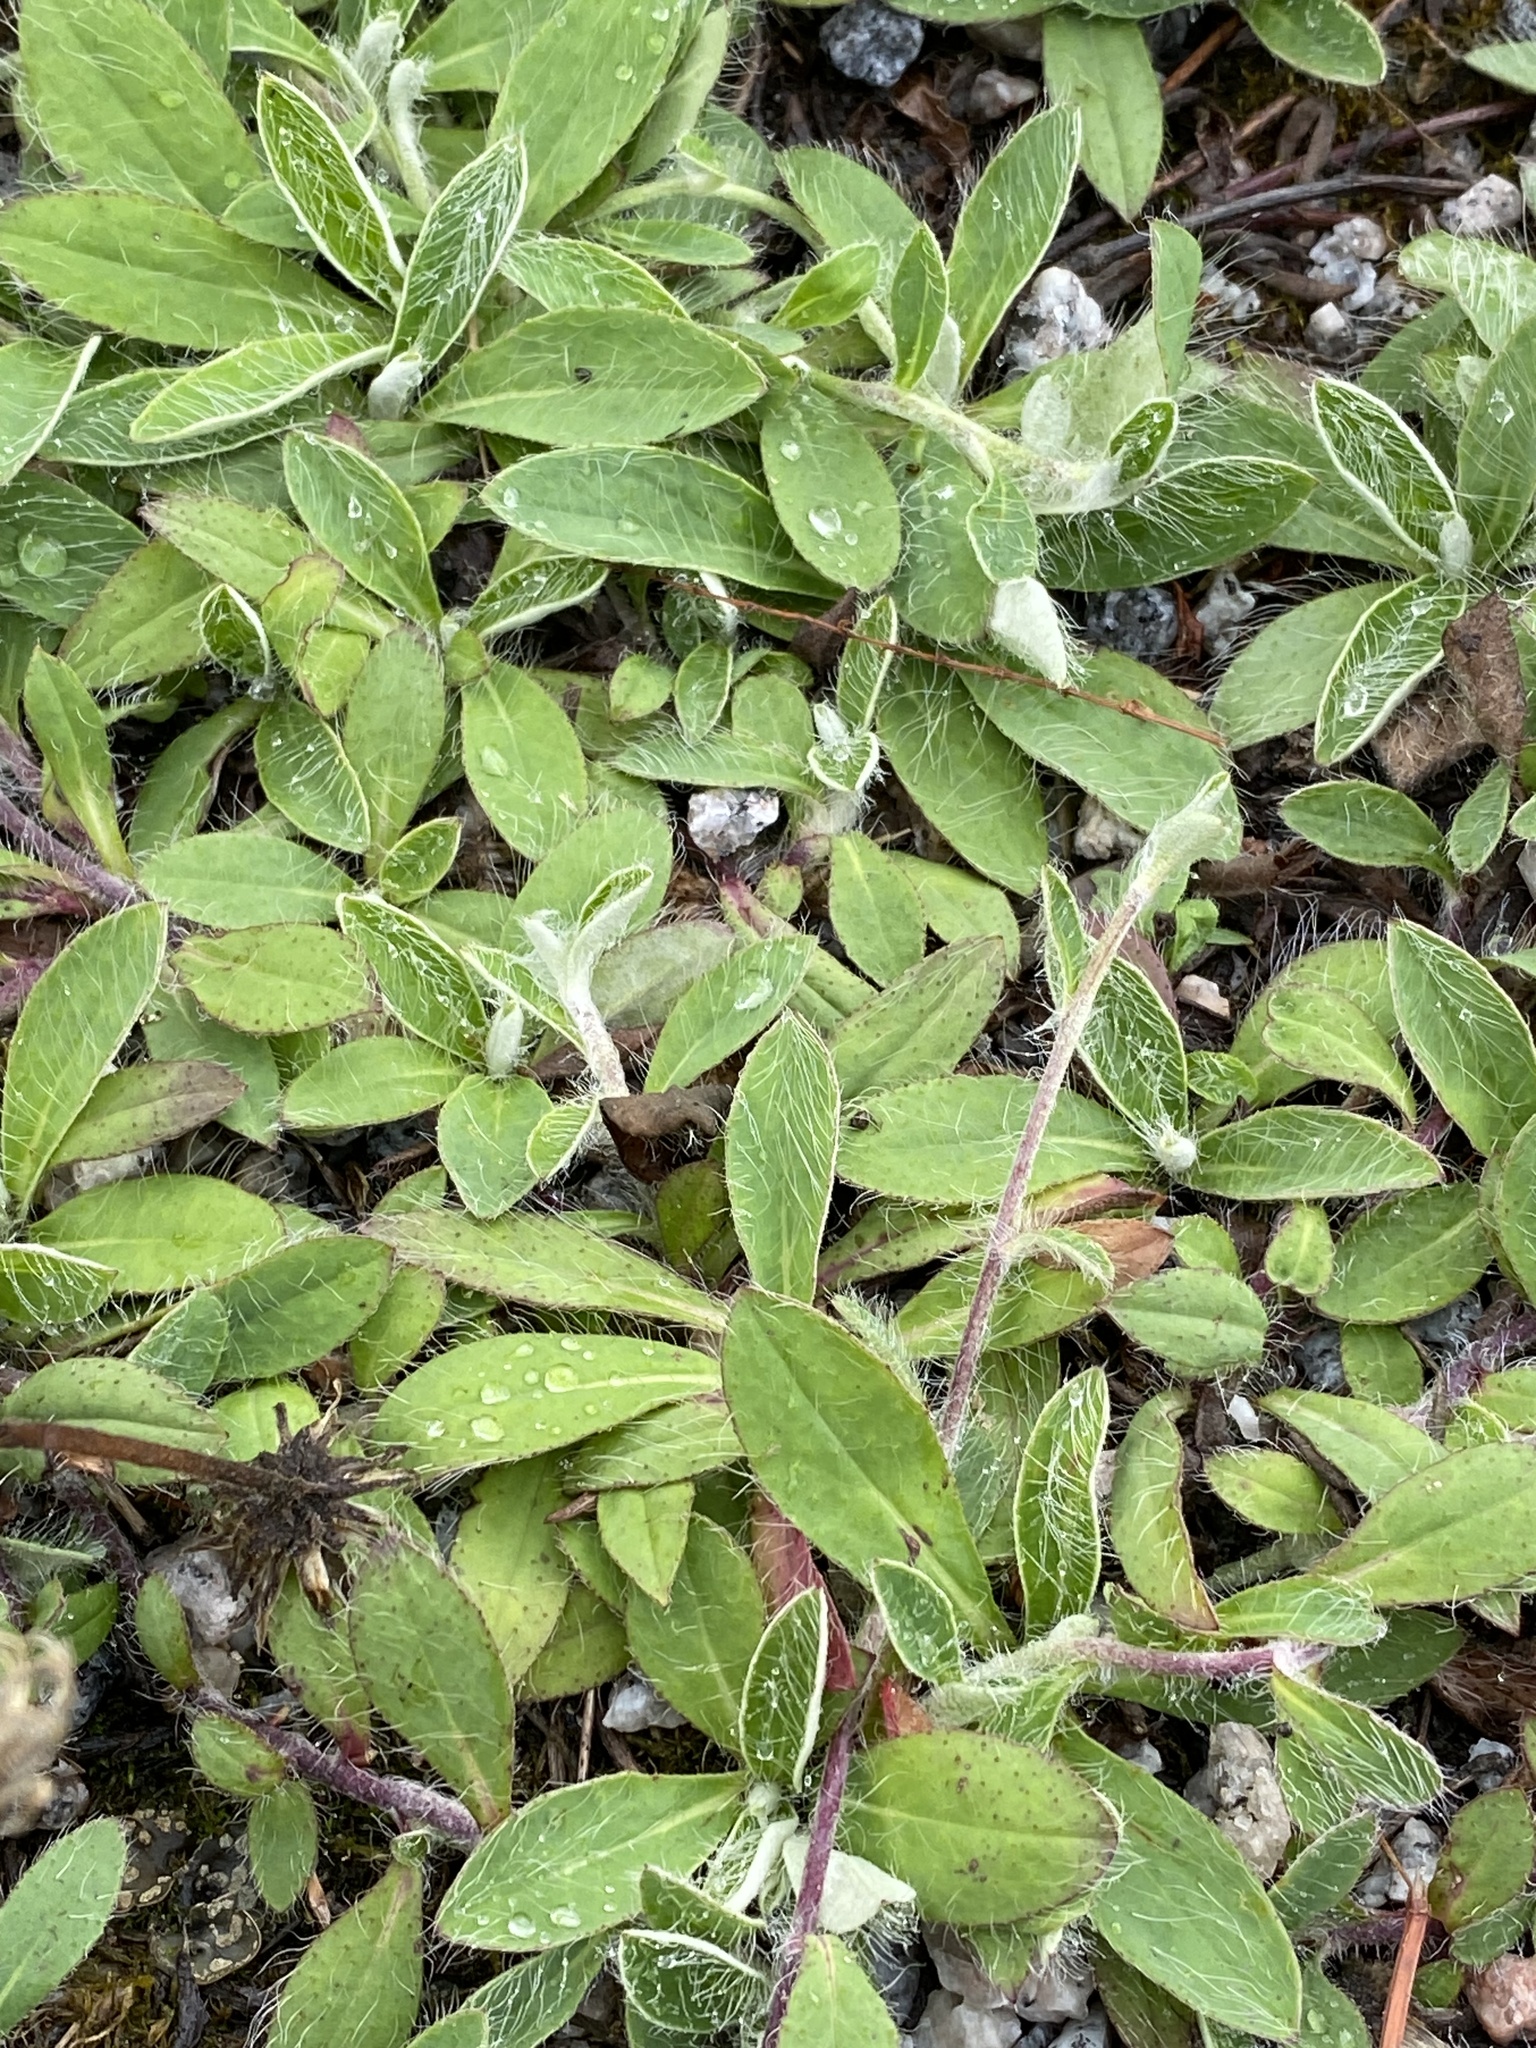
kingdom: Plantae
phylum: Tracheophyta
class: Magnoliopsida
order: Asterales
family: Asteraceae
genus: Pilosella
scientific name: Pilosella officinarum
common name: Mouse-ear hawkweed
